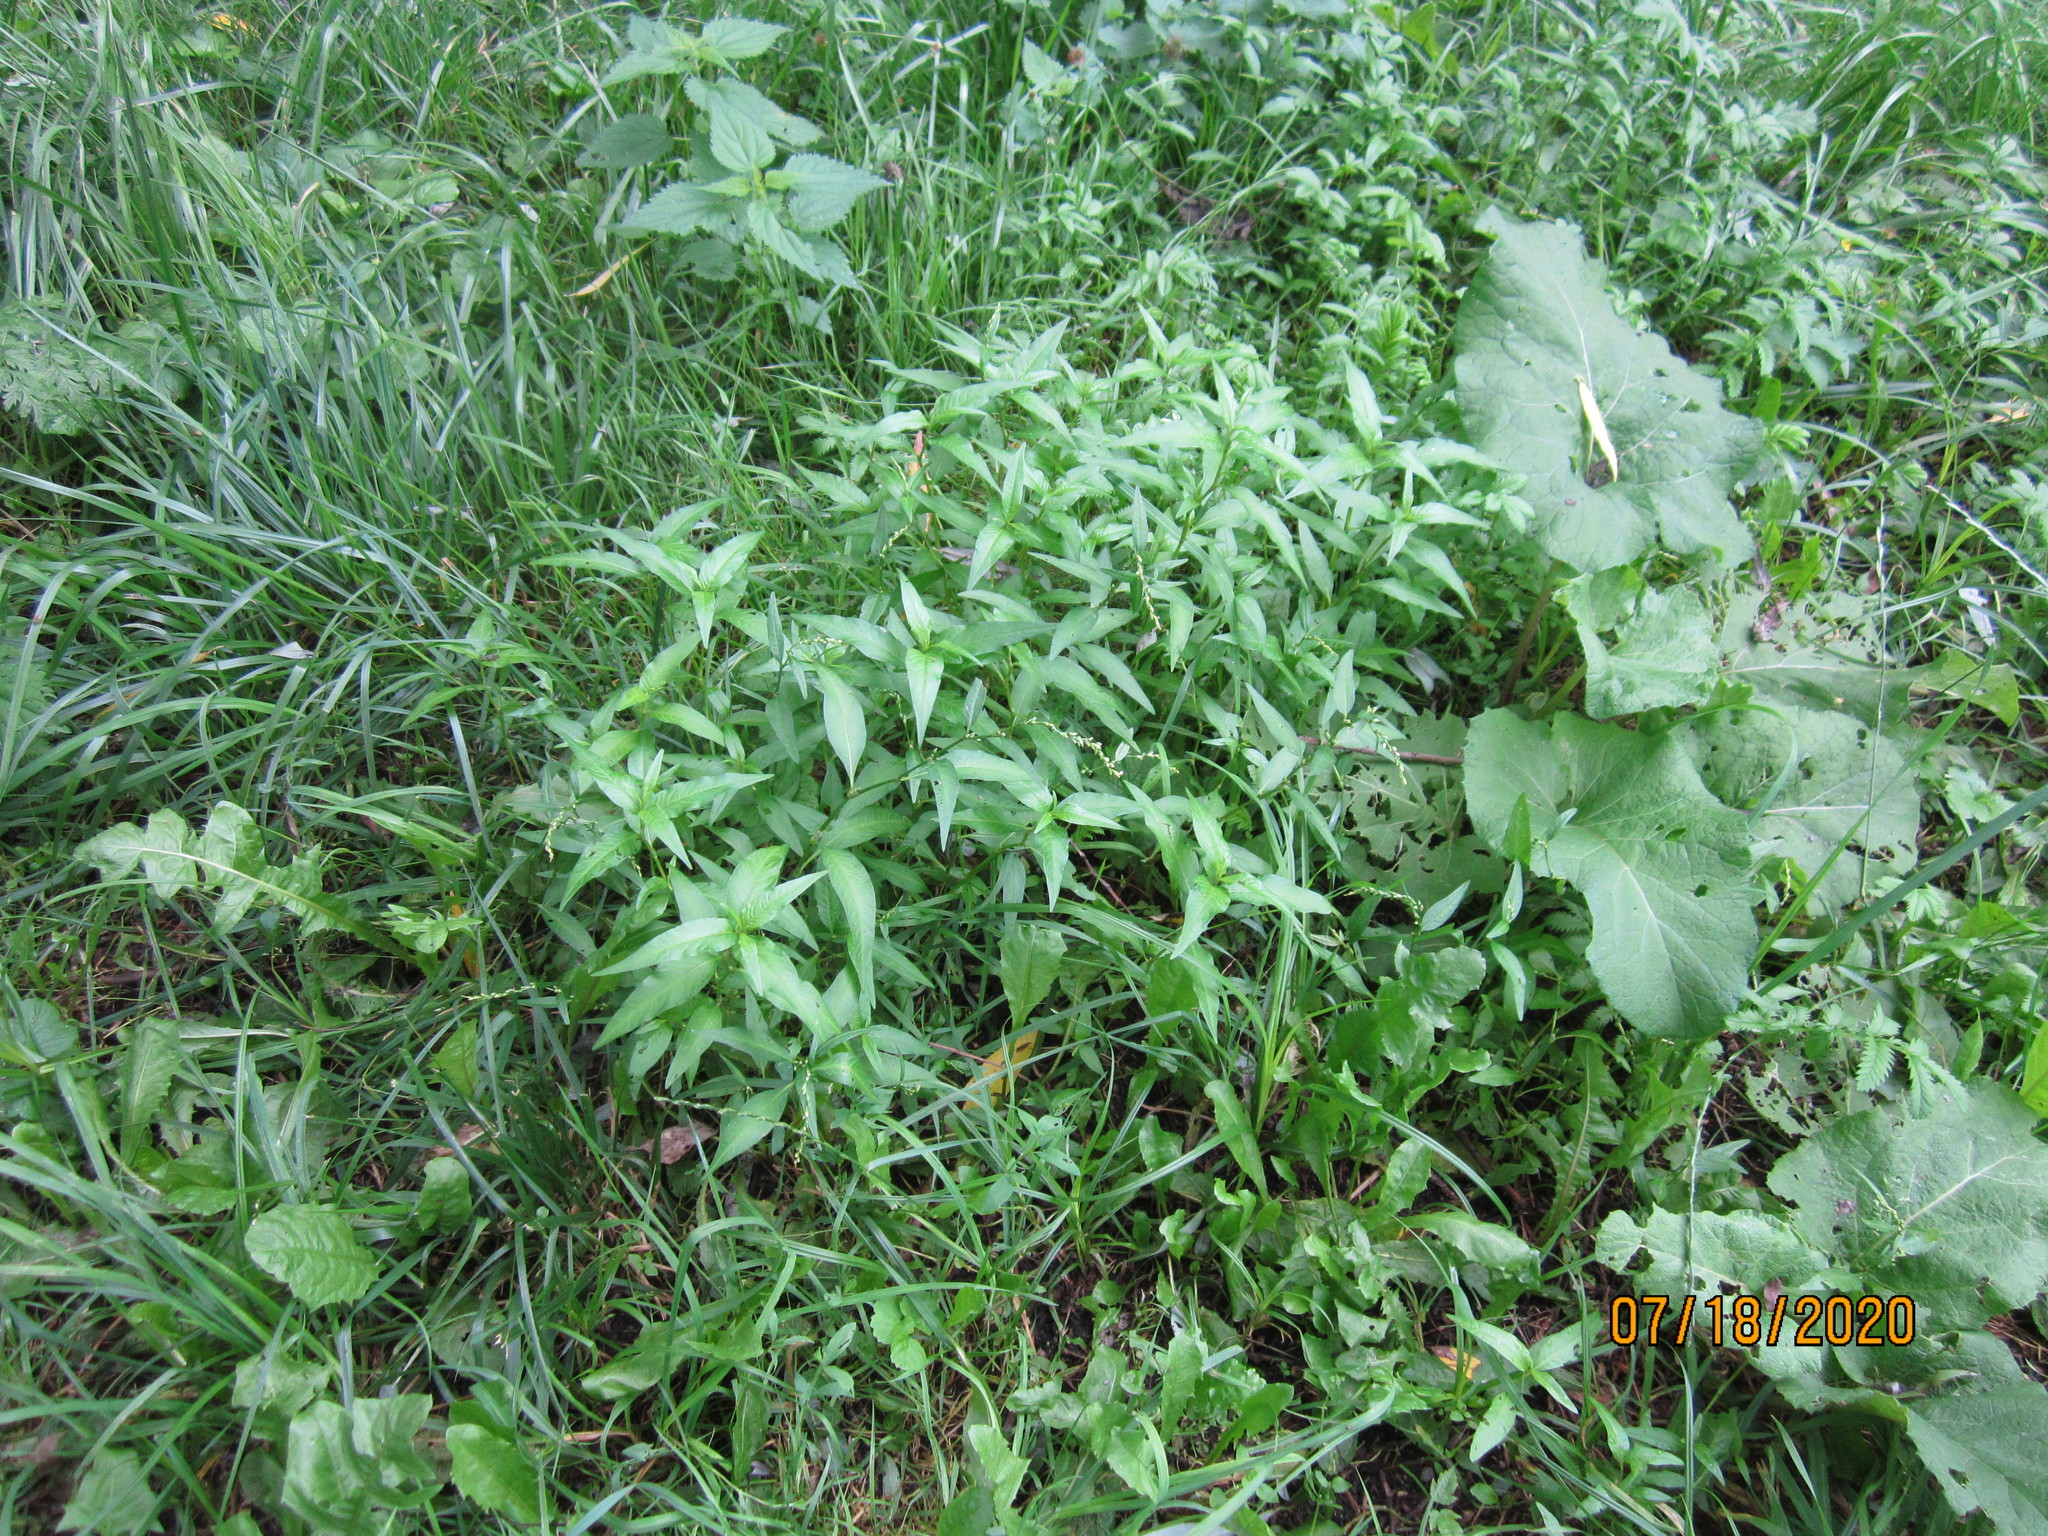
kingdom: Plantae
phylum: Tracheophyta
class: Magnoliopsida
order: Caryophyllales
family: Polygonaceae
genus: Persicaria
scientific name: Persicaria hydropiper
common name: Water-pepper
